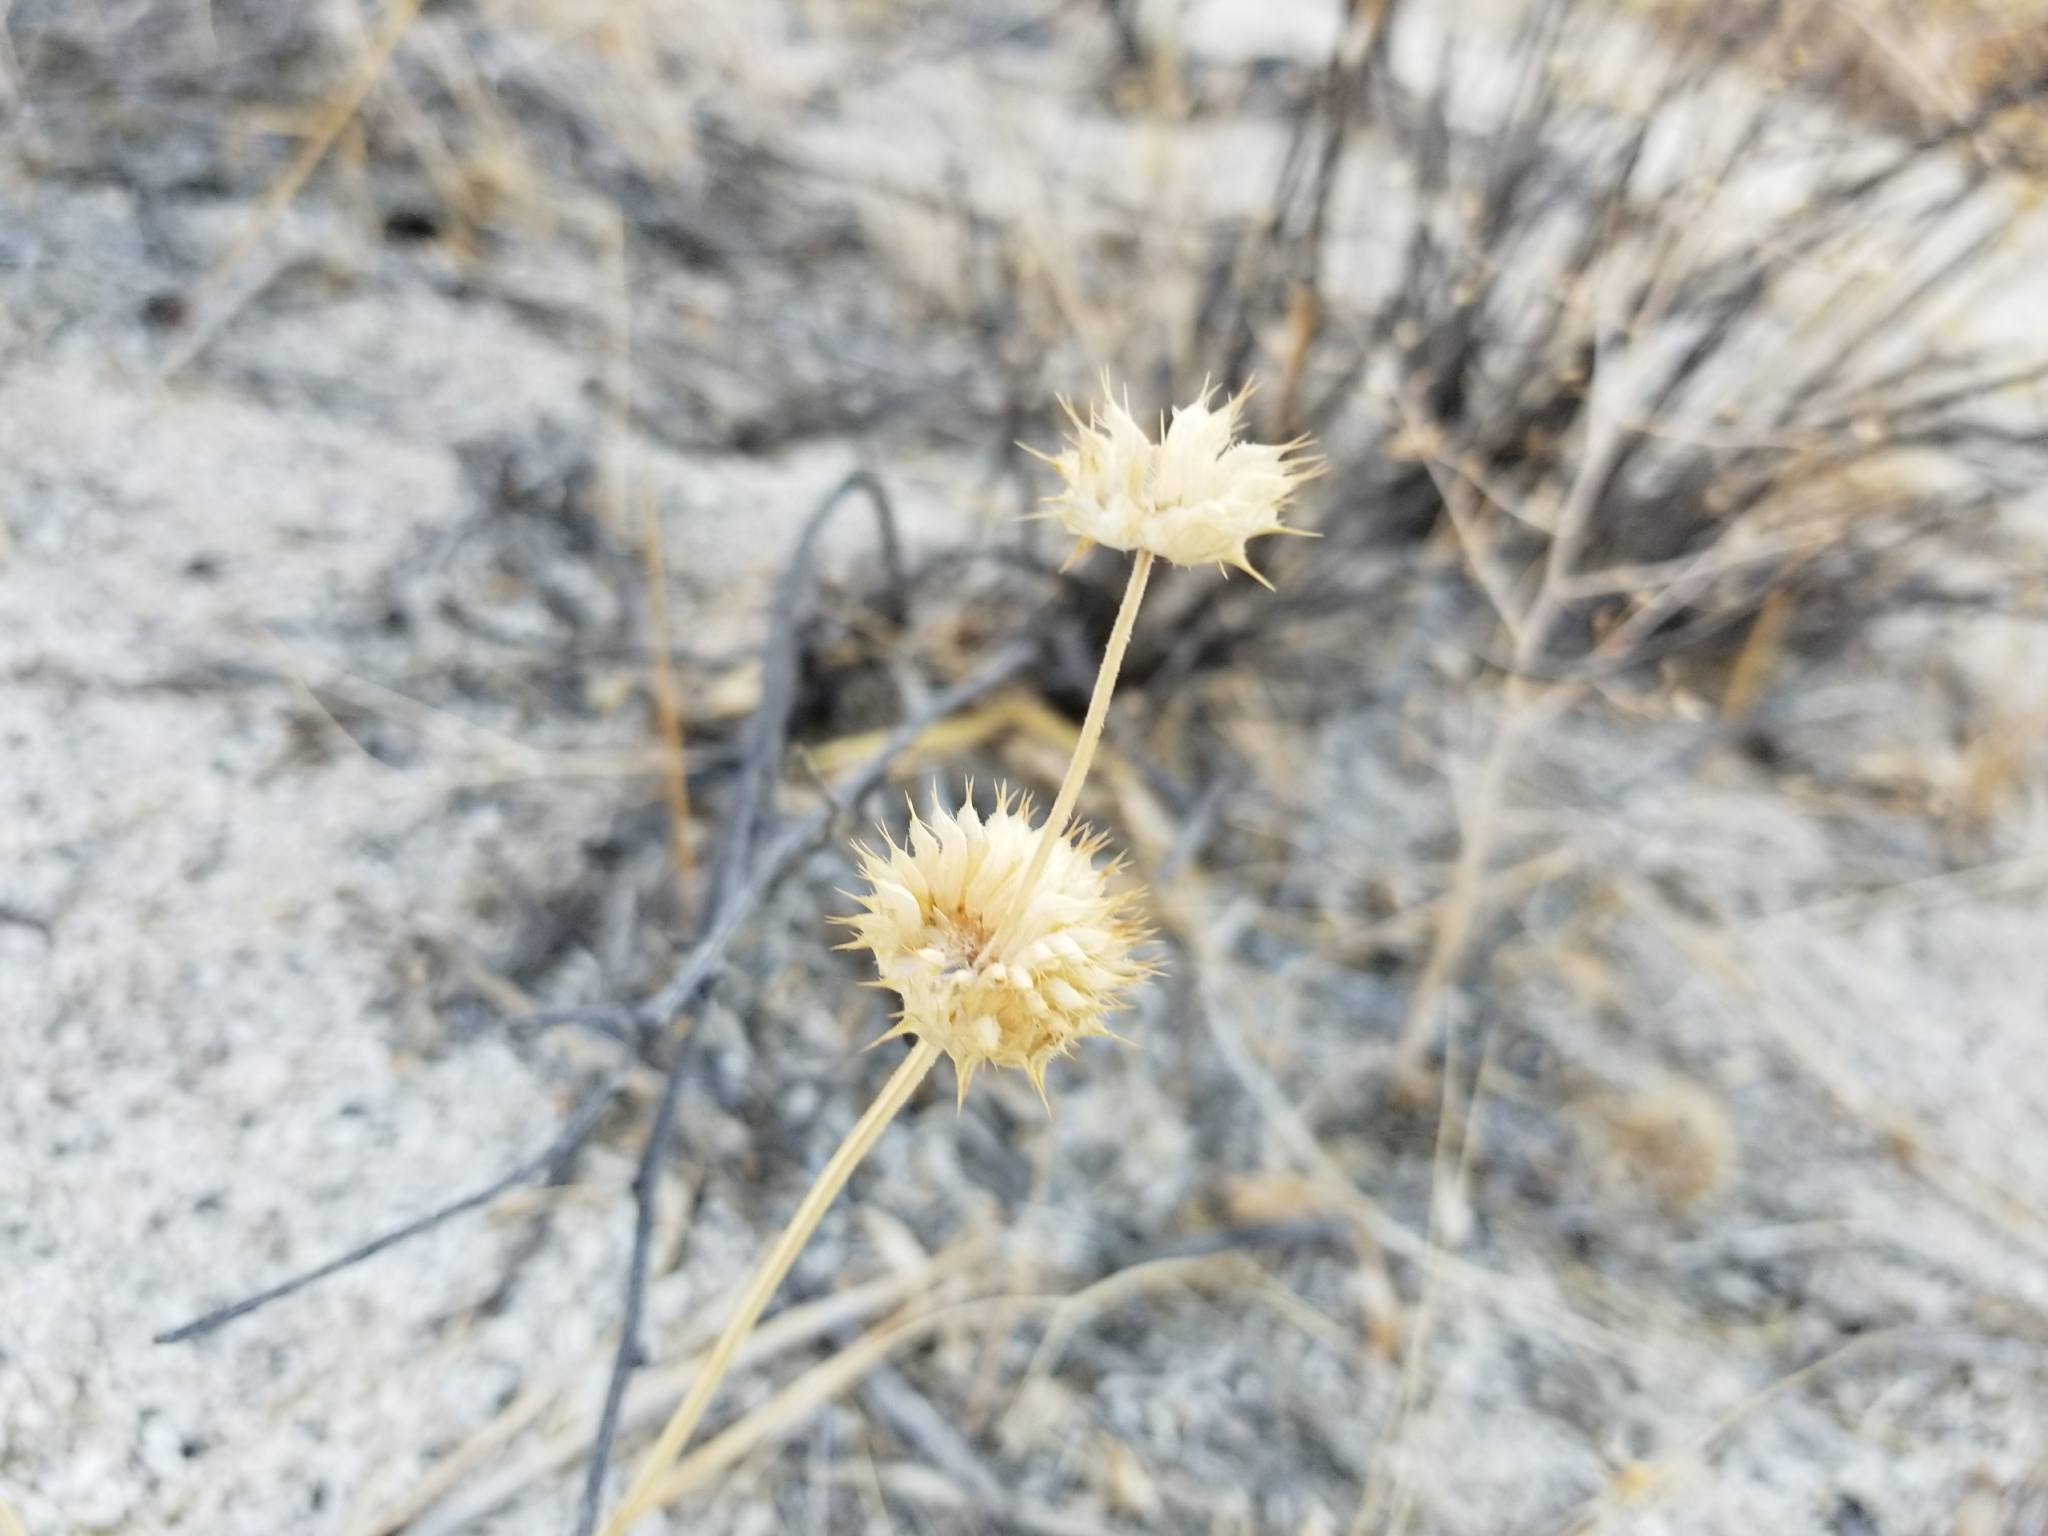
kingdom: Plantae
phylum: Tracheophyta
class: Magnoliopsida
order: Lamiales
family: Lamiaceae
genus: Salvia
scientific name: Salvia columbariae
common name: Chia
